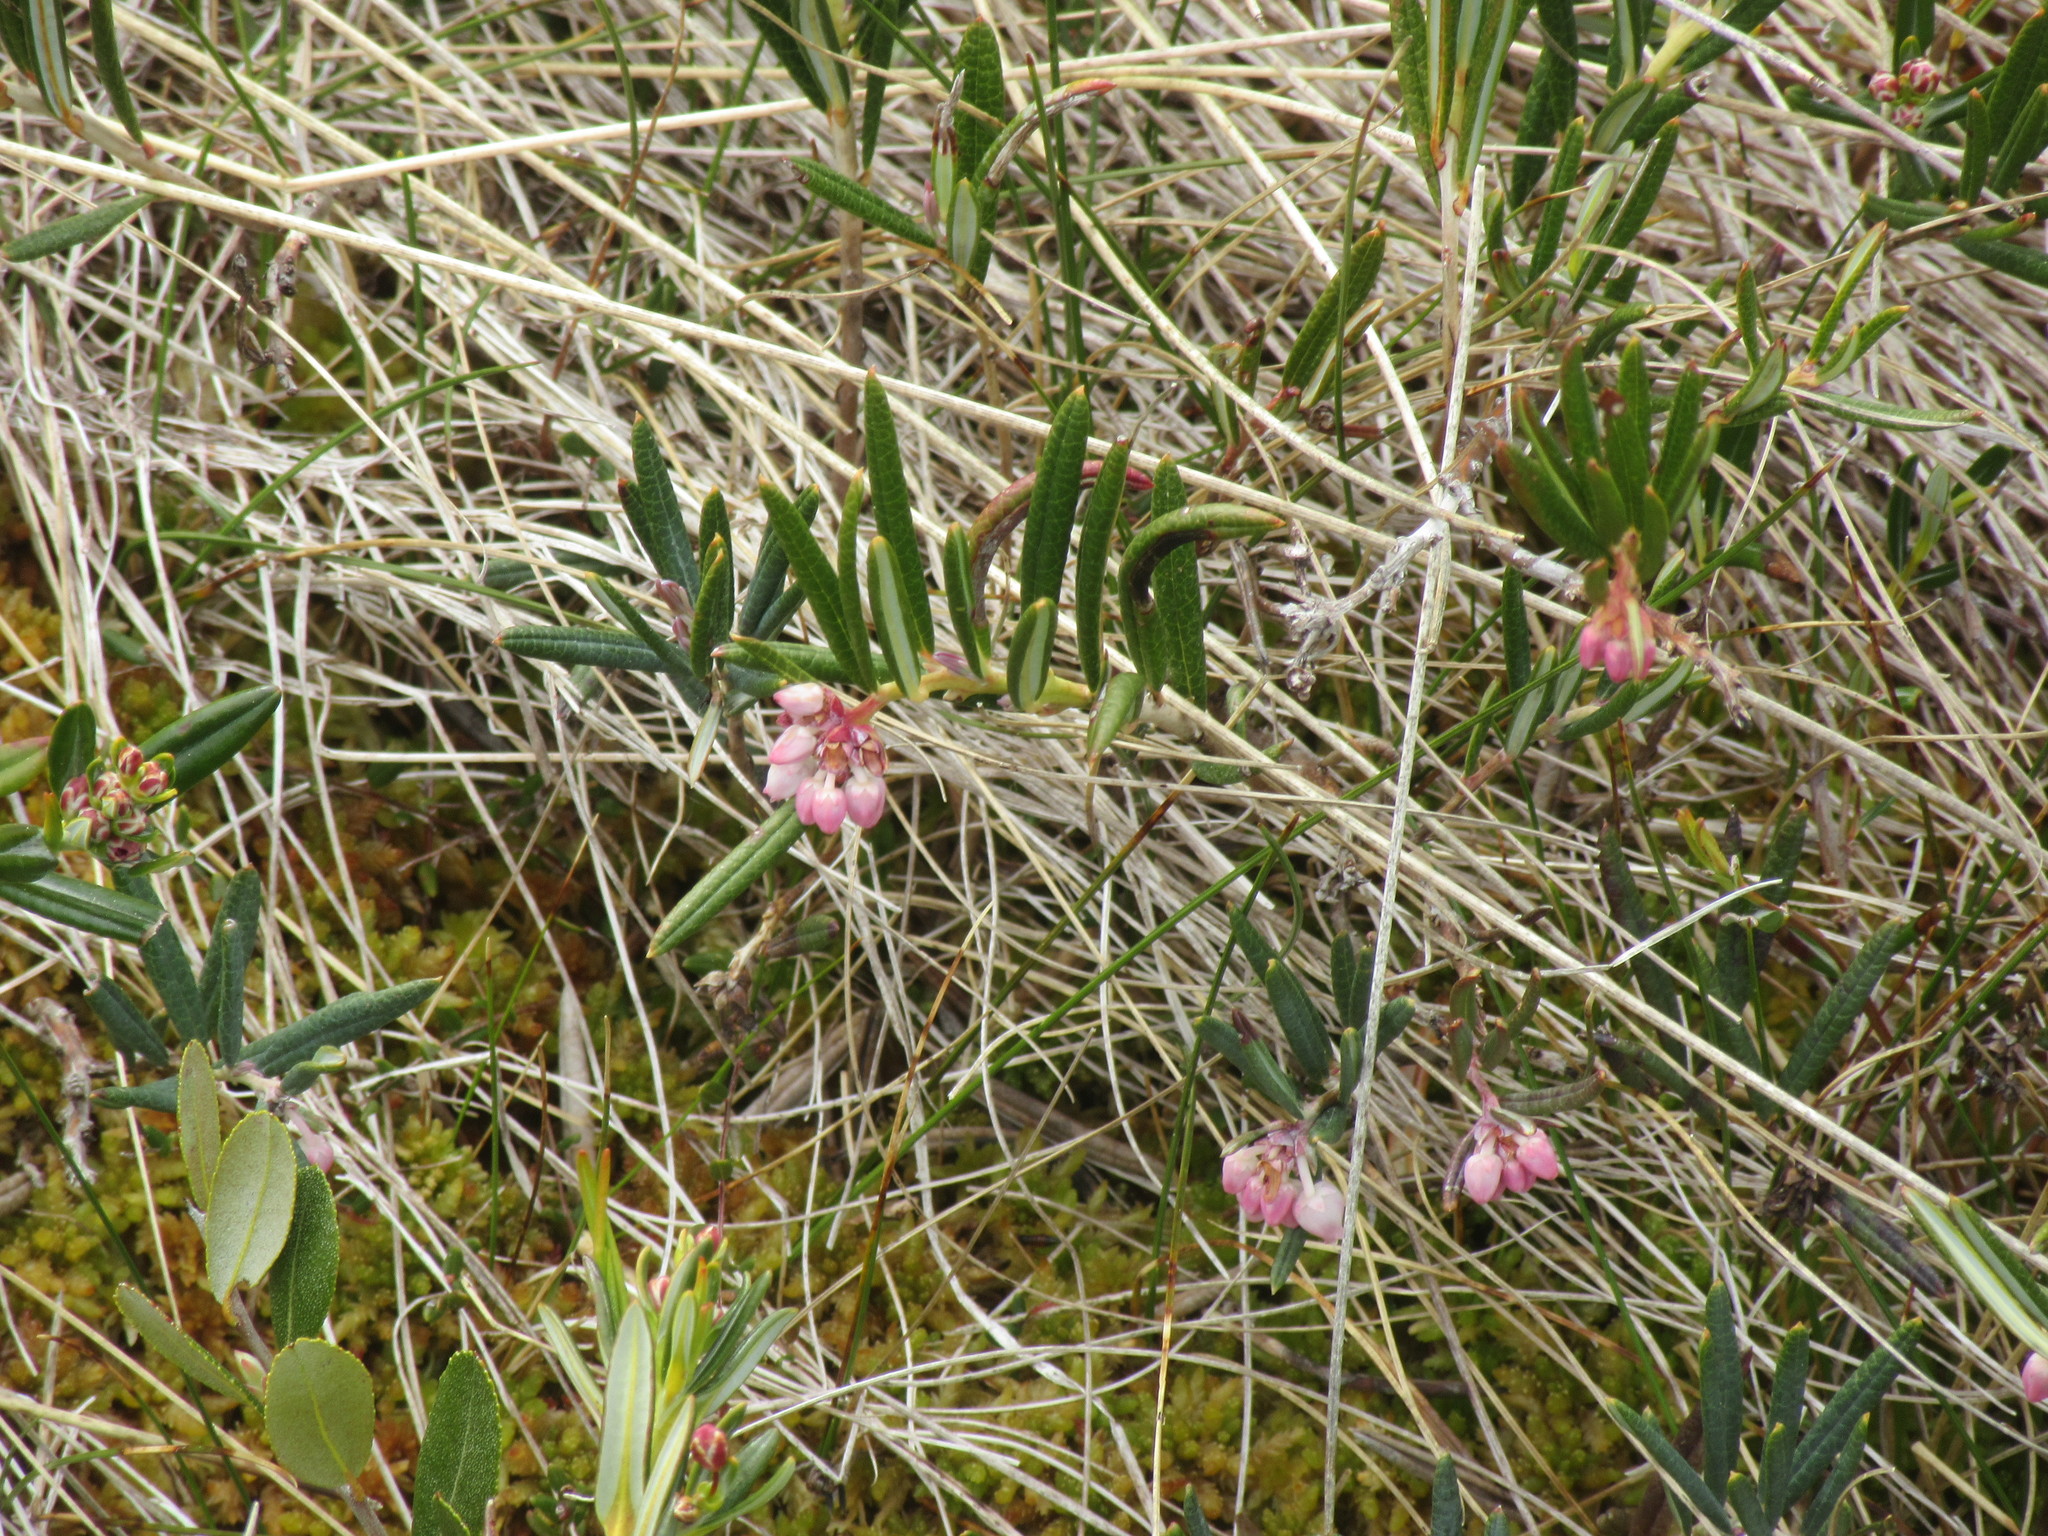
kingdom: Plantae
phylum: Tracheophyta
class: Magnoliopsida
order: Ericales
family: Ericaceae
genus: Andromeda
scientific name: Andromeda polifolia
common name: Bog-rosemary
